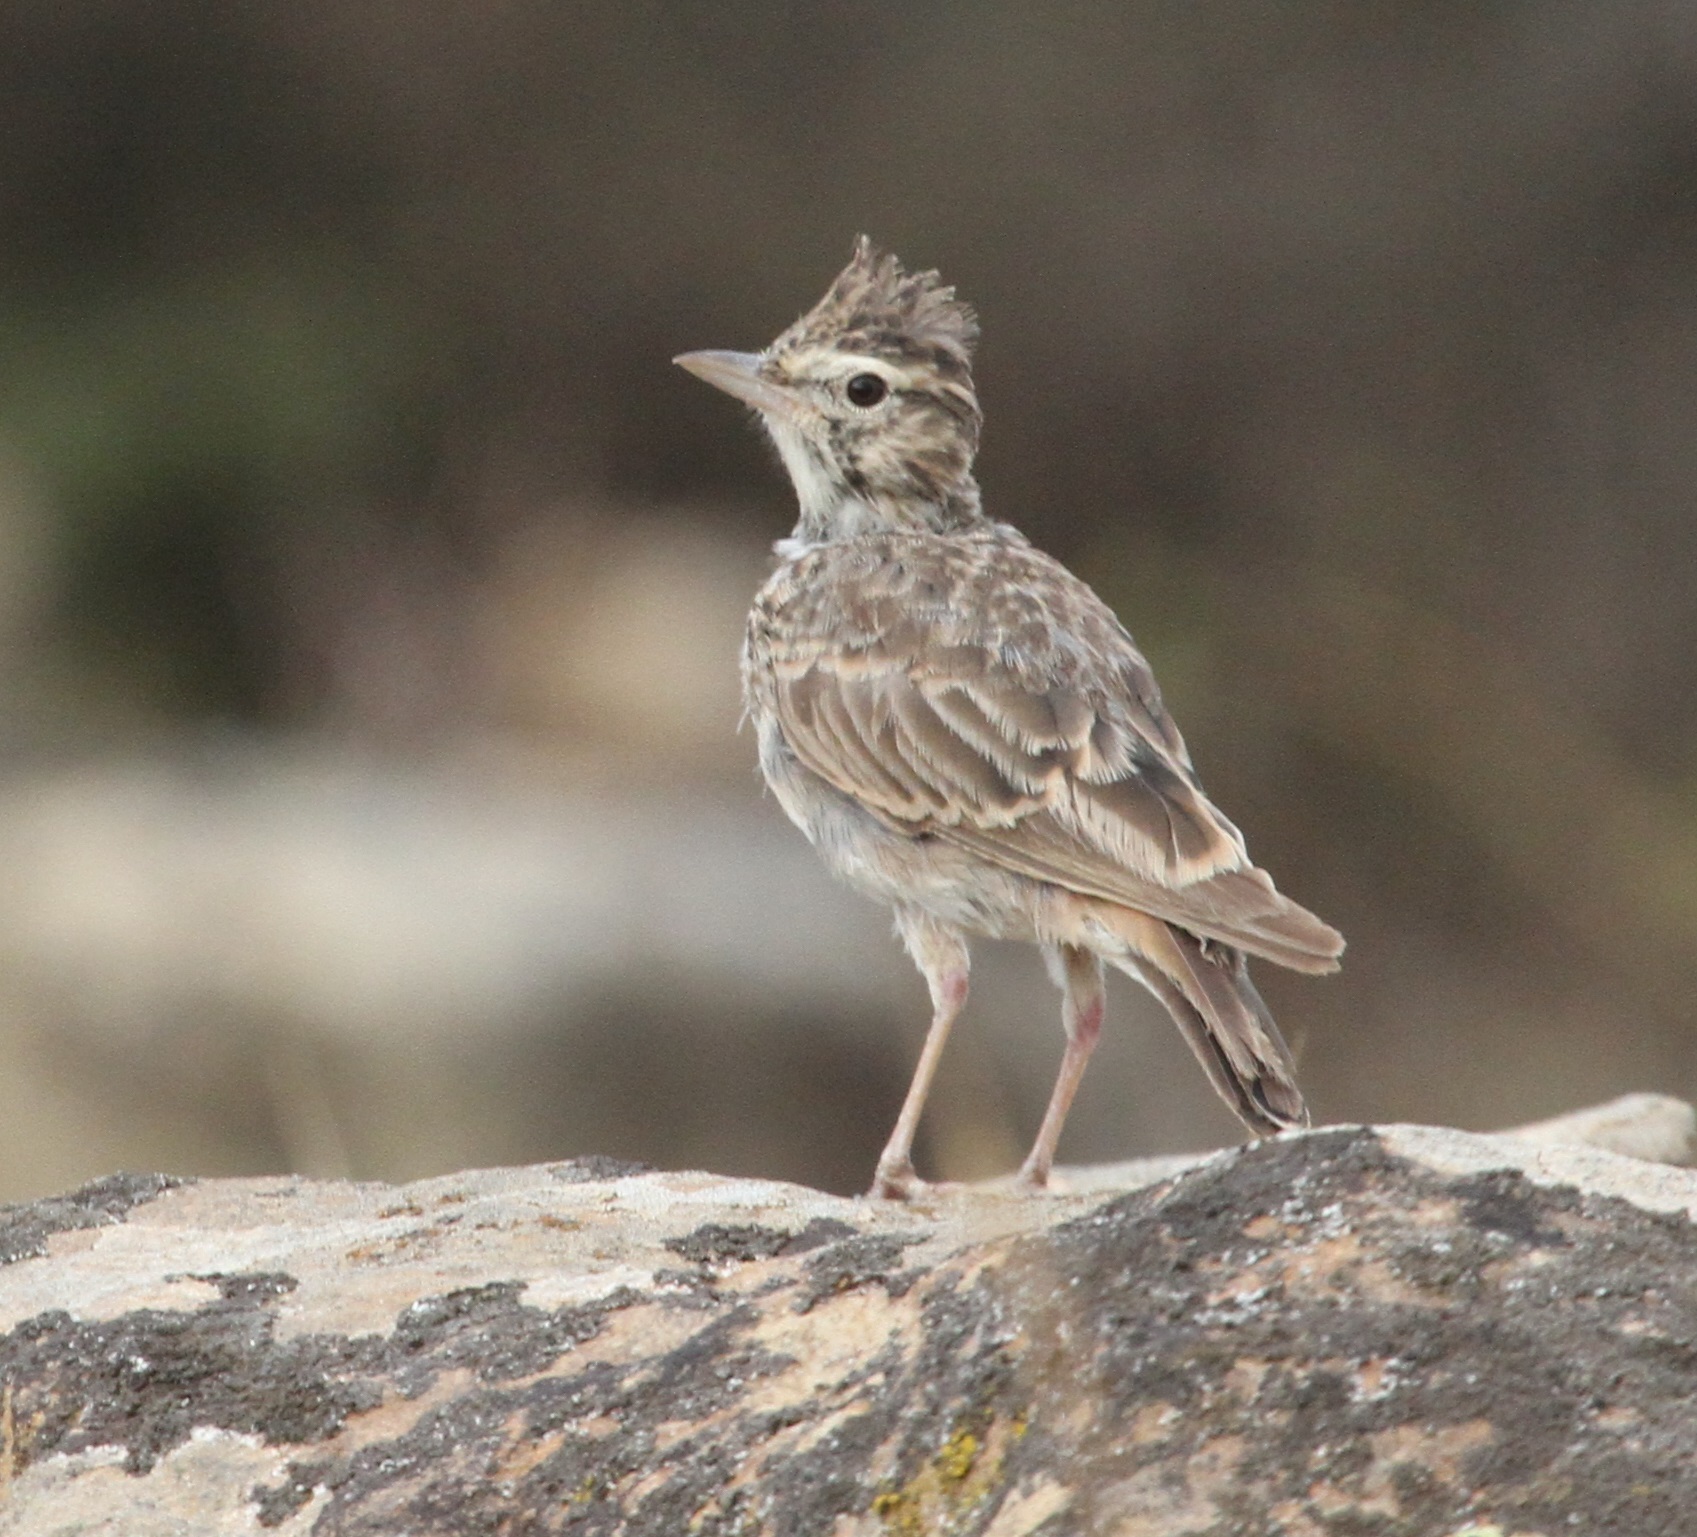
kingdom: Animalia
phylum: Chordata
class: Aves
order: Passeriformes
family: Alaudidae
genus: Galerida
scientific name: Galerida theklae
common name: Thekla lark
